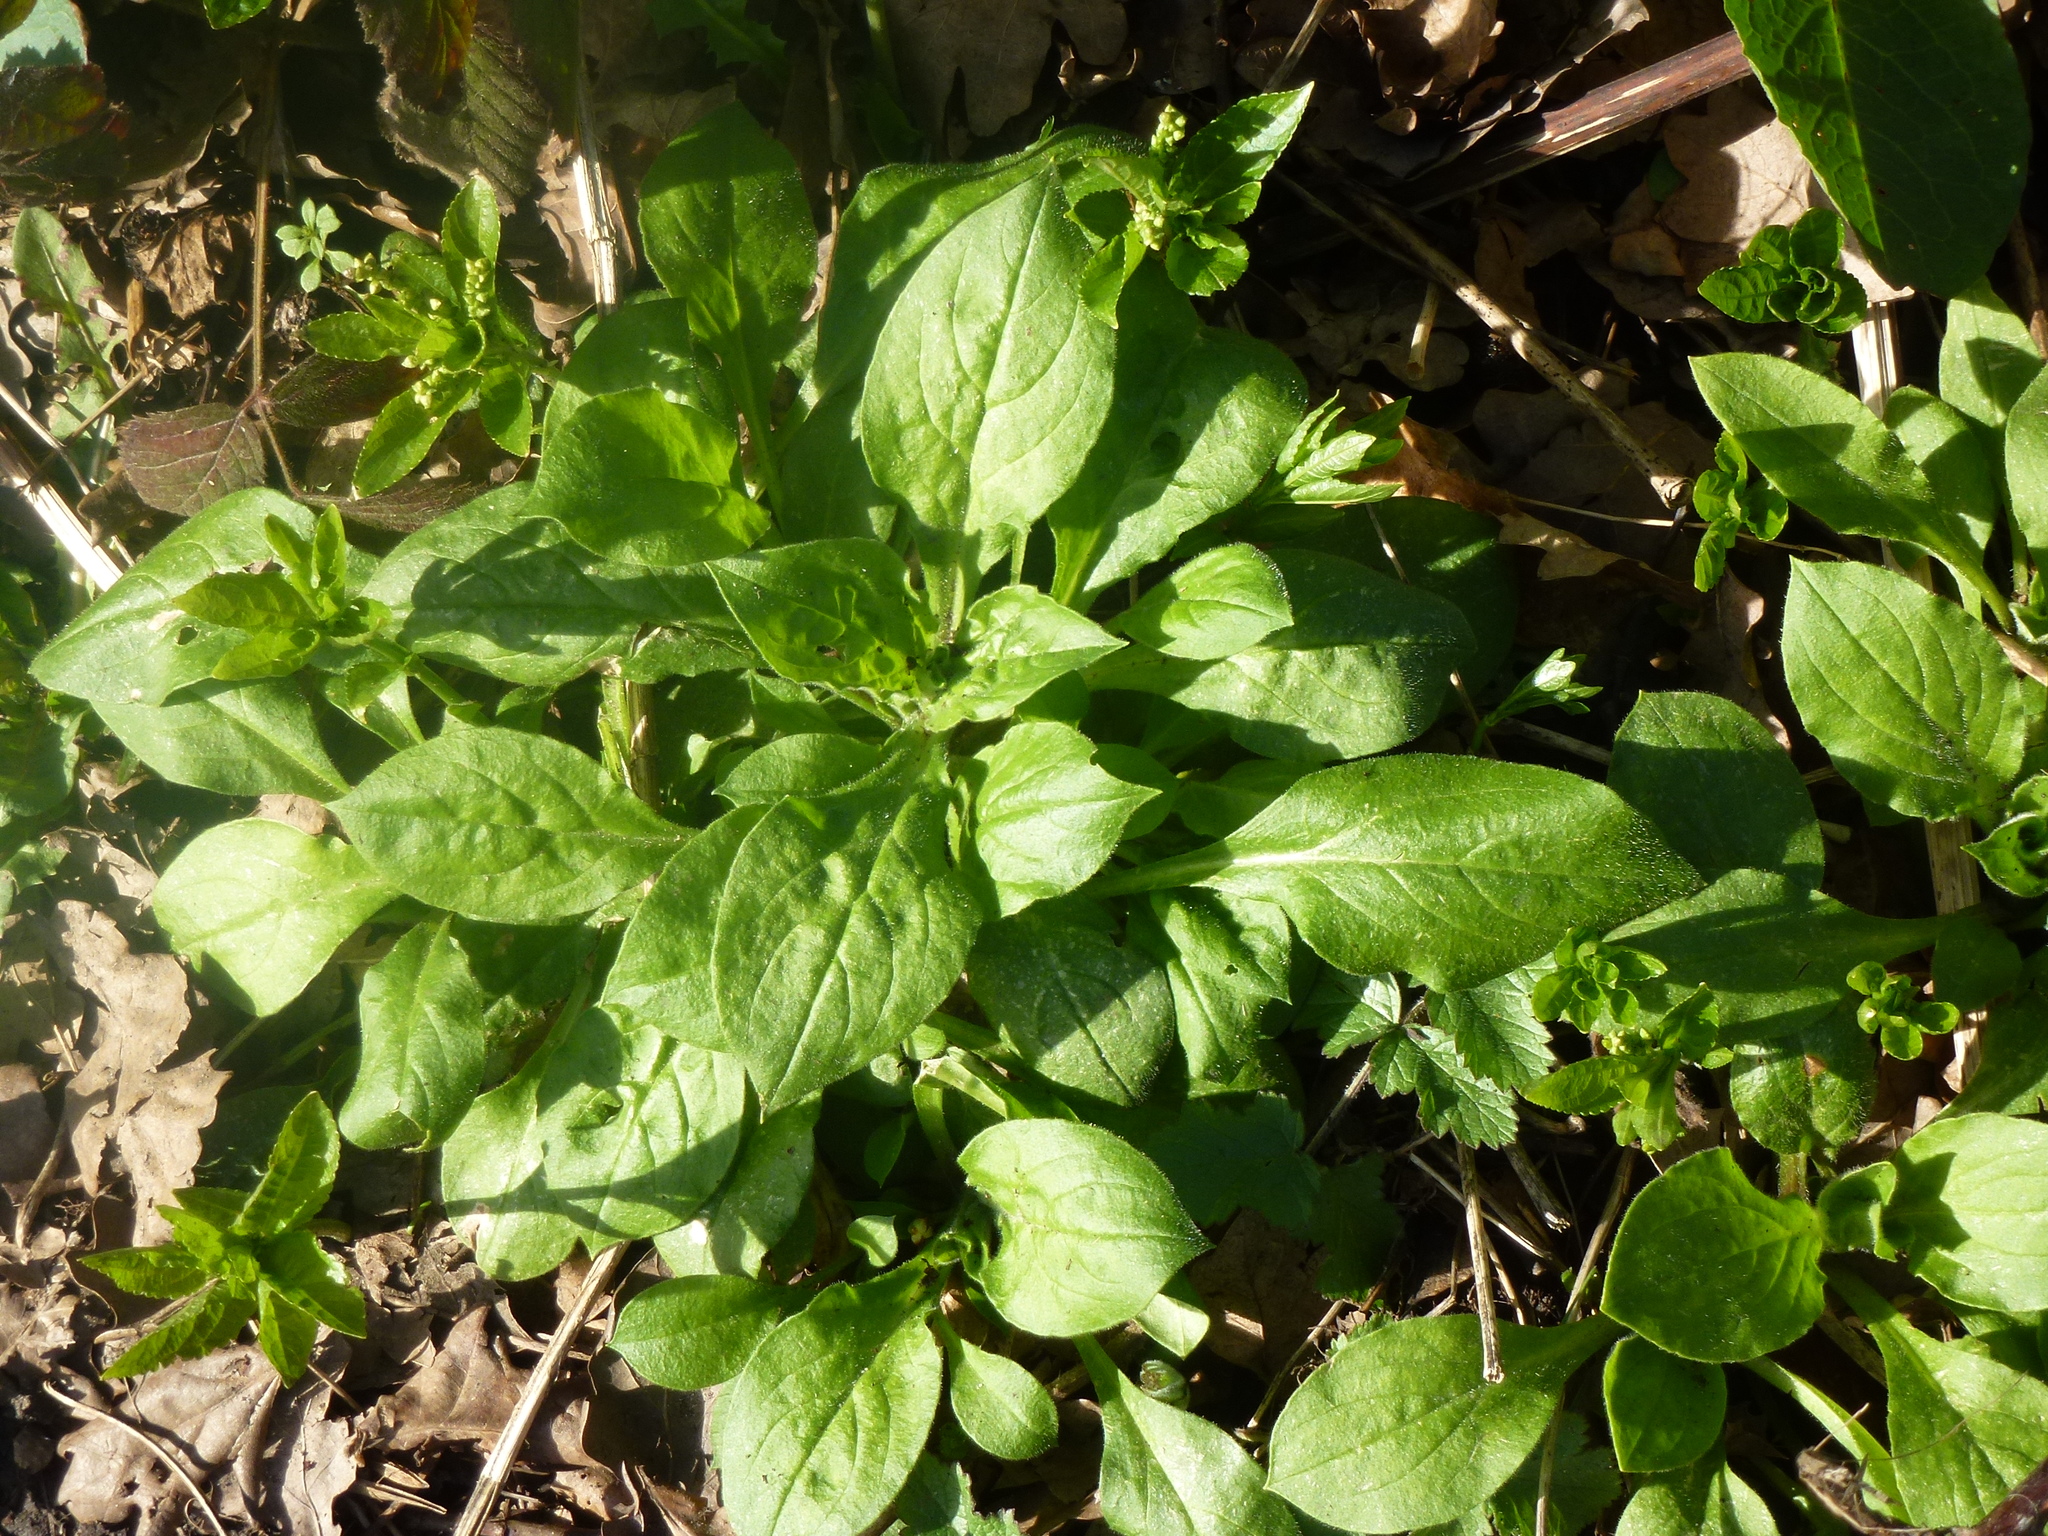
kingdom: Plantae
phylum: Tracheophyta
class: Magnoliopsida
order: Caryophyllales
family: Caryophyllaceae
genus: Silene
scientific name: Silene dioica
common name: Red campion
